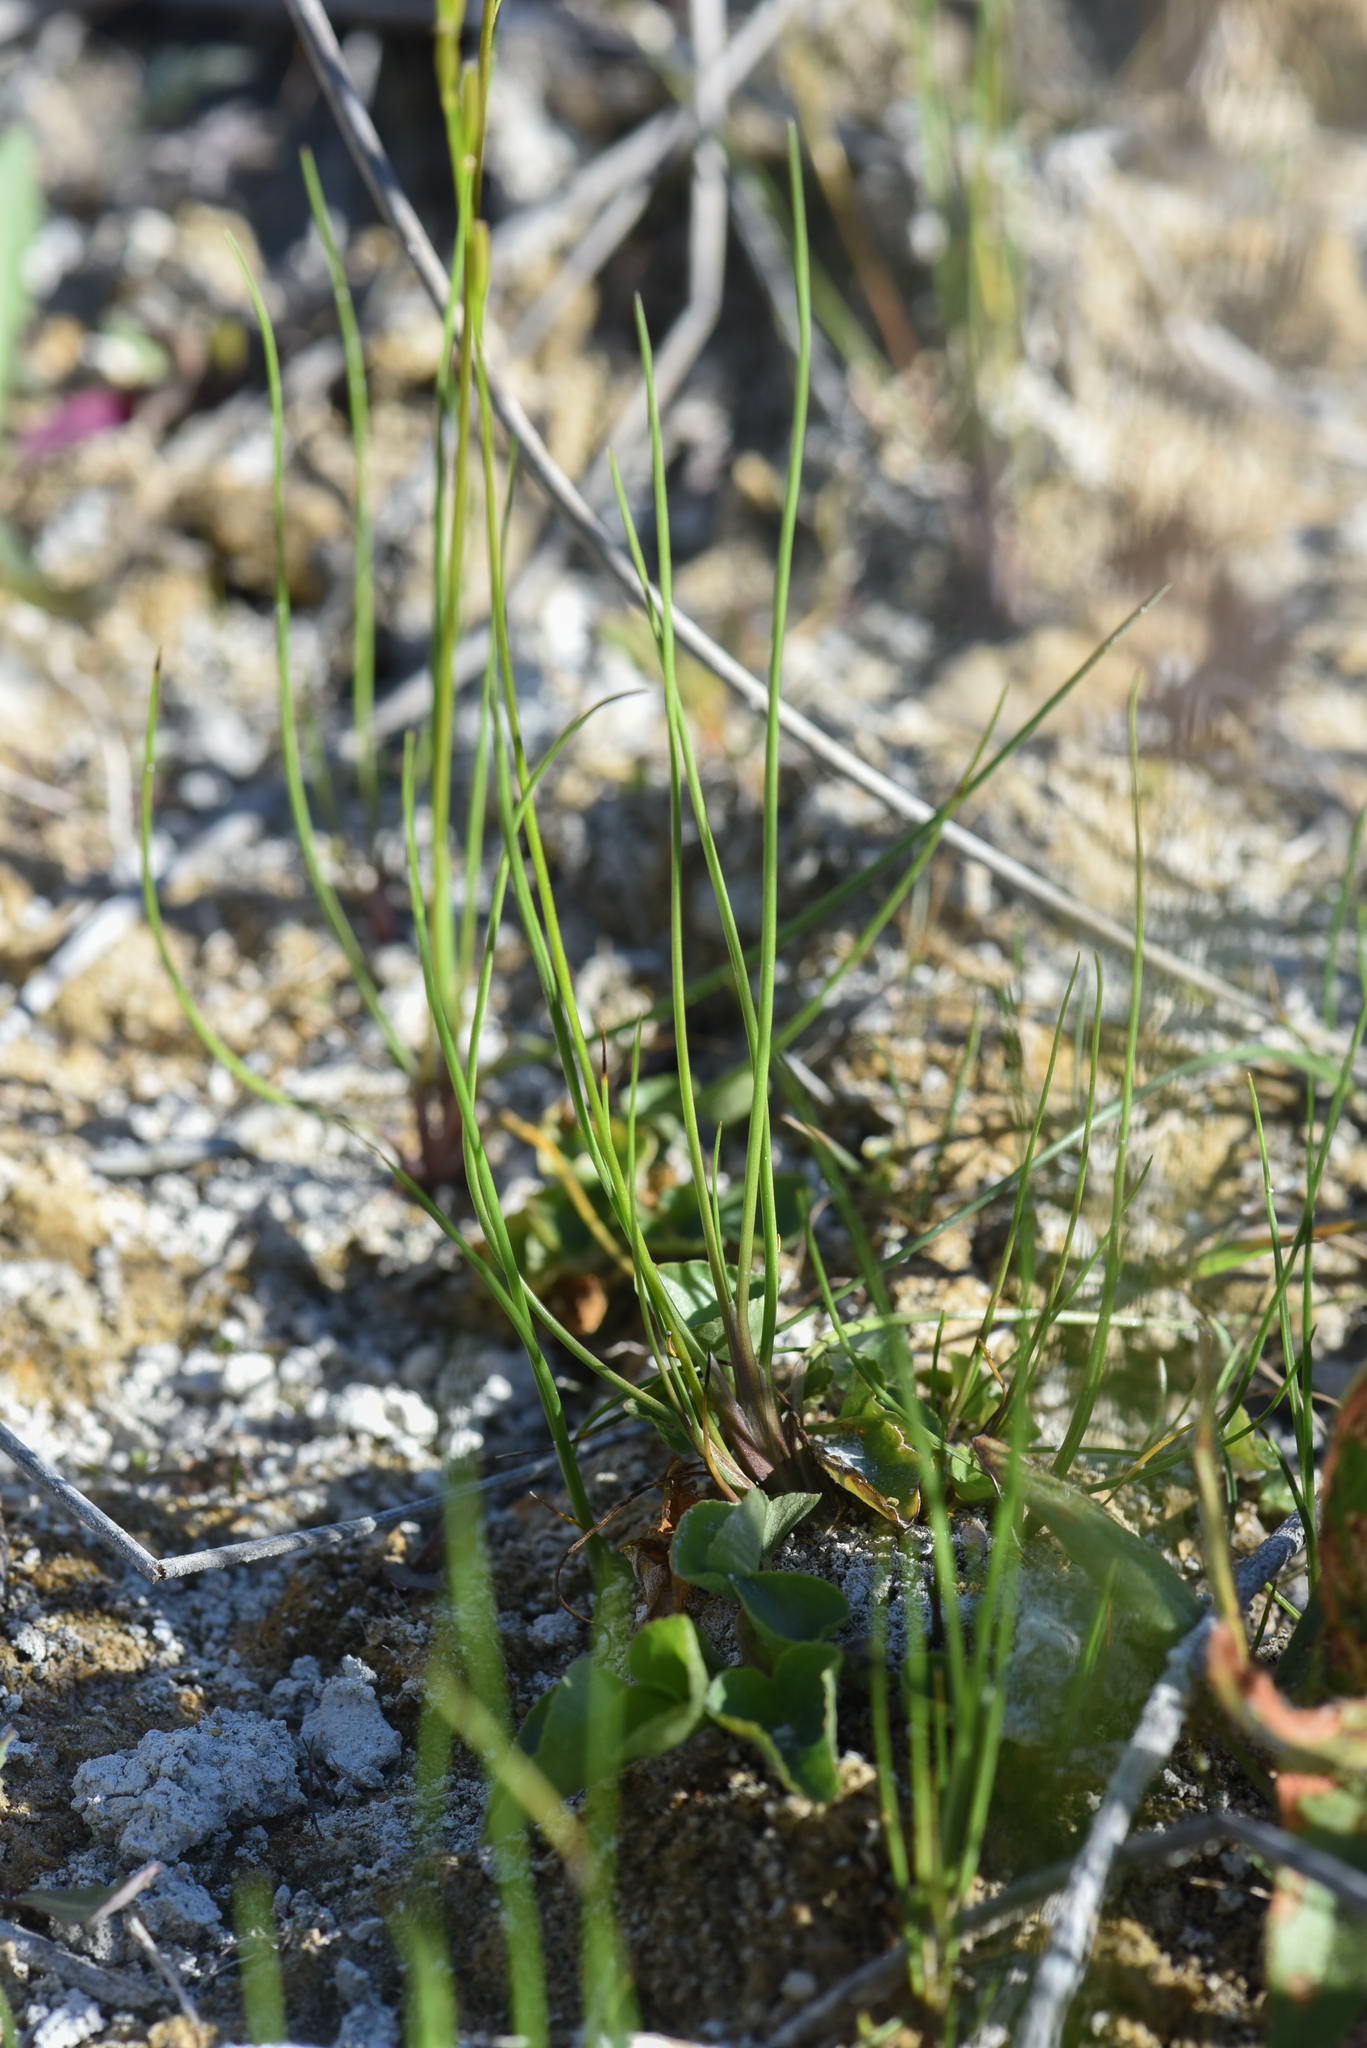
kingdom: Plantae
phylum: Tracheophyta
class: Liliopsida
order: Alismatales
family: Juncaginaceae
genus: Triglochin
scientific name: Triglochin palustris
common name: Marsh arrowgrass
